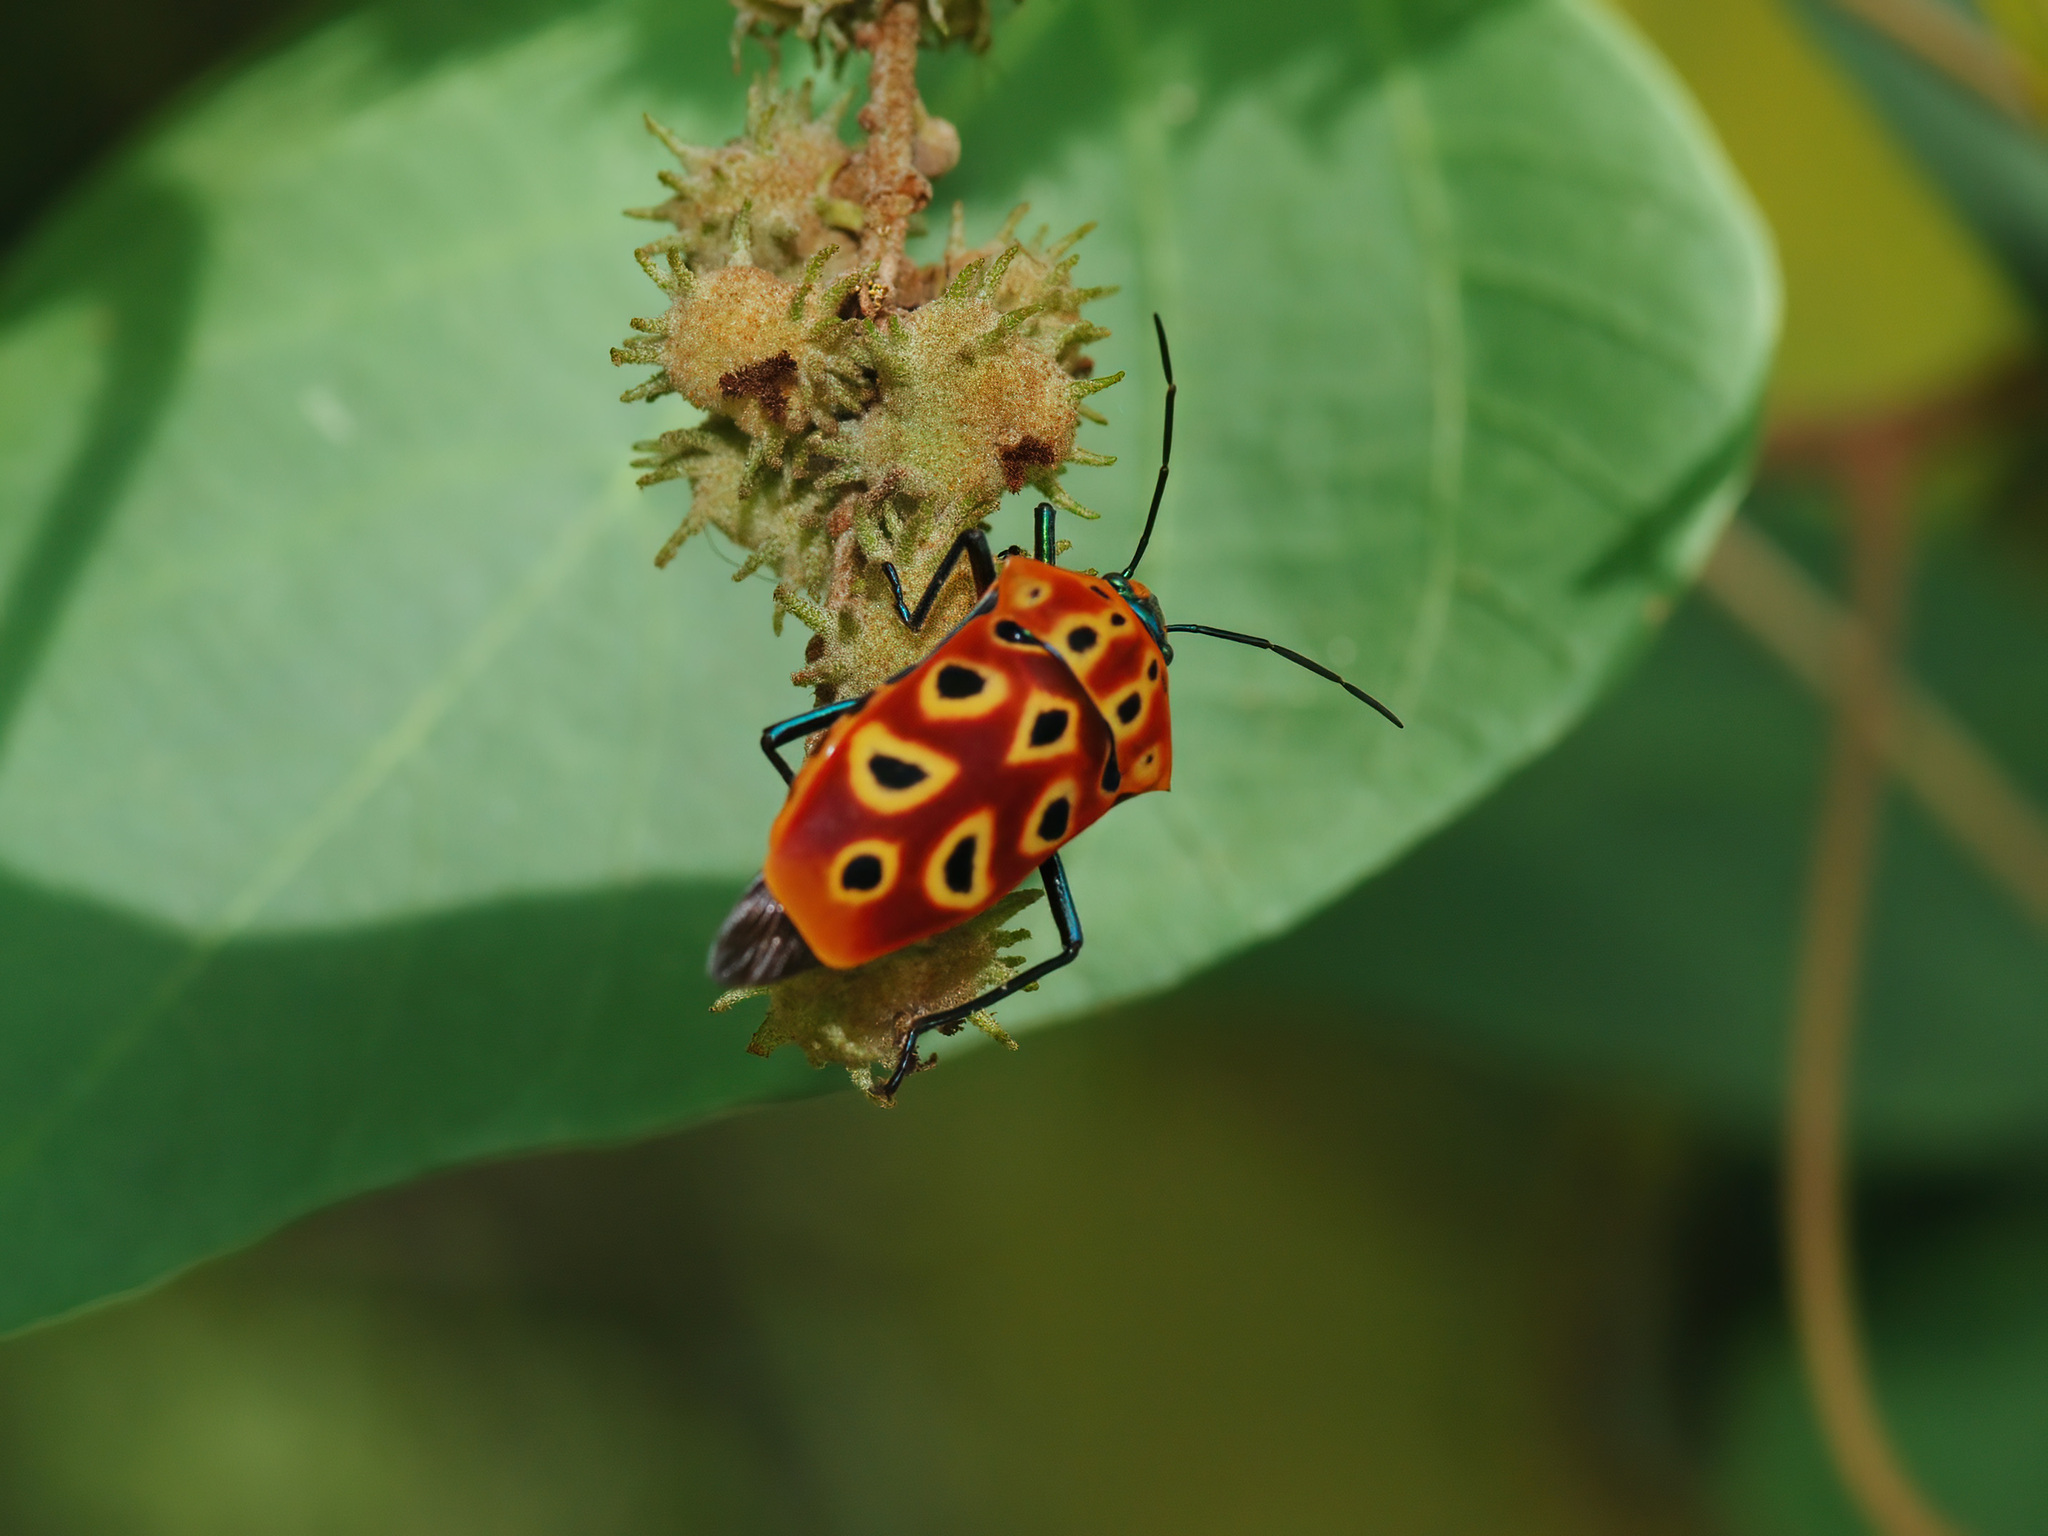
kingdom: Animalia
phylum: Arthropoda
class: Insecta
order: Hemiptera
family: Scutelleridae
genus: Cantao
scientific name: Cantao ocellatus
